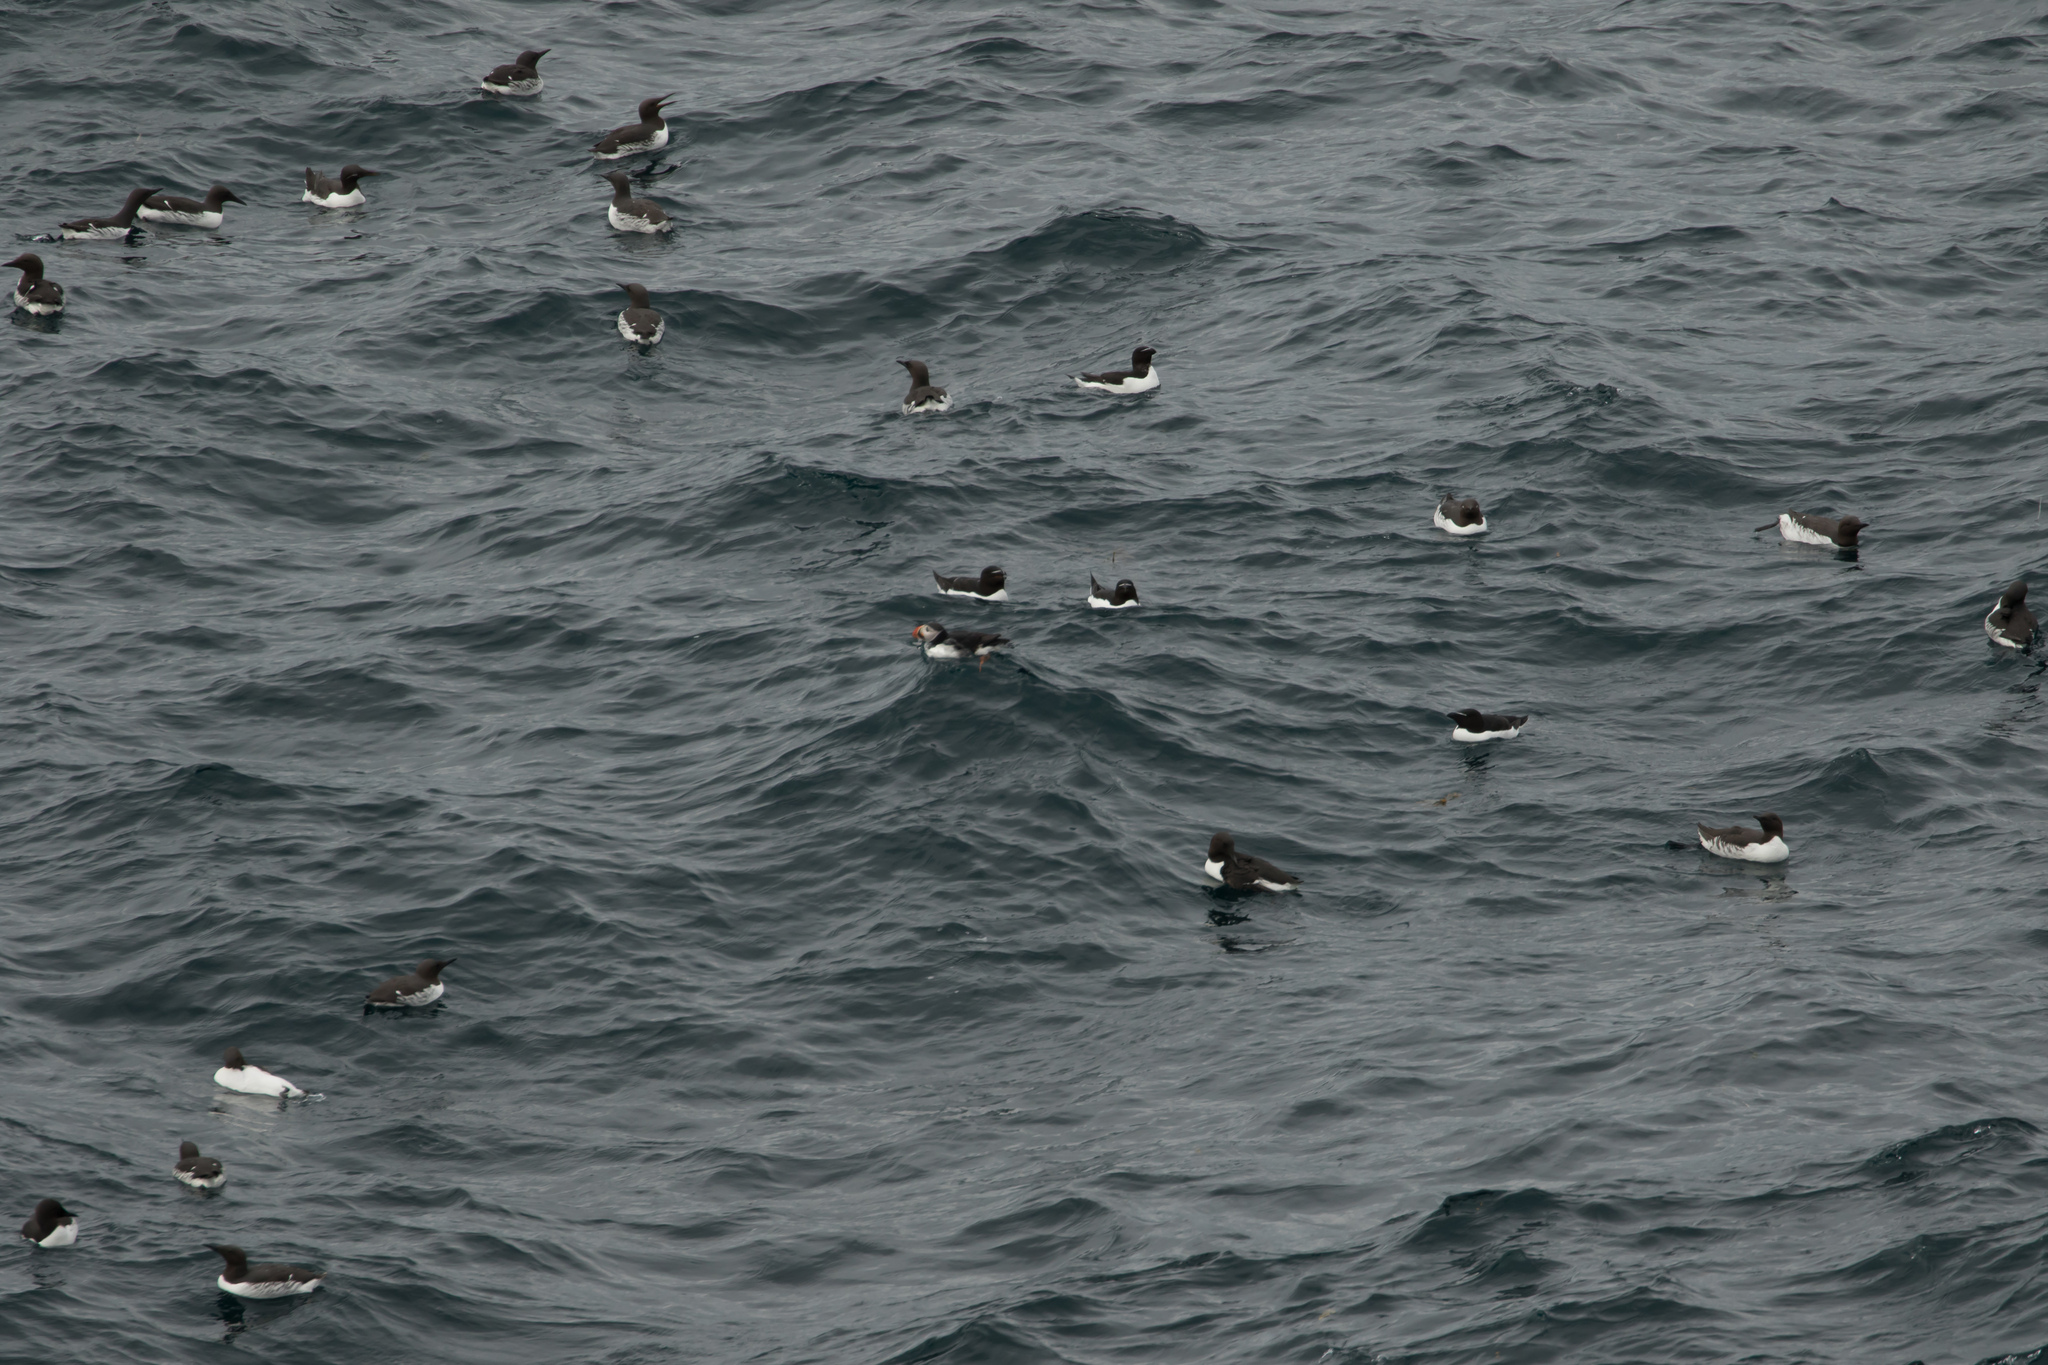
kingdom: Animalia
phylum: Chordata
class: Aves
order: Charadriiformes
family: Alcidae
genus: Fratercula
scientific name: Fratercula arctica
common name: Atlantic puffin
